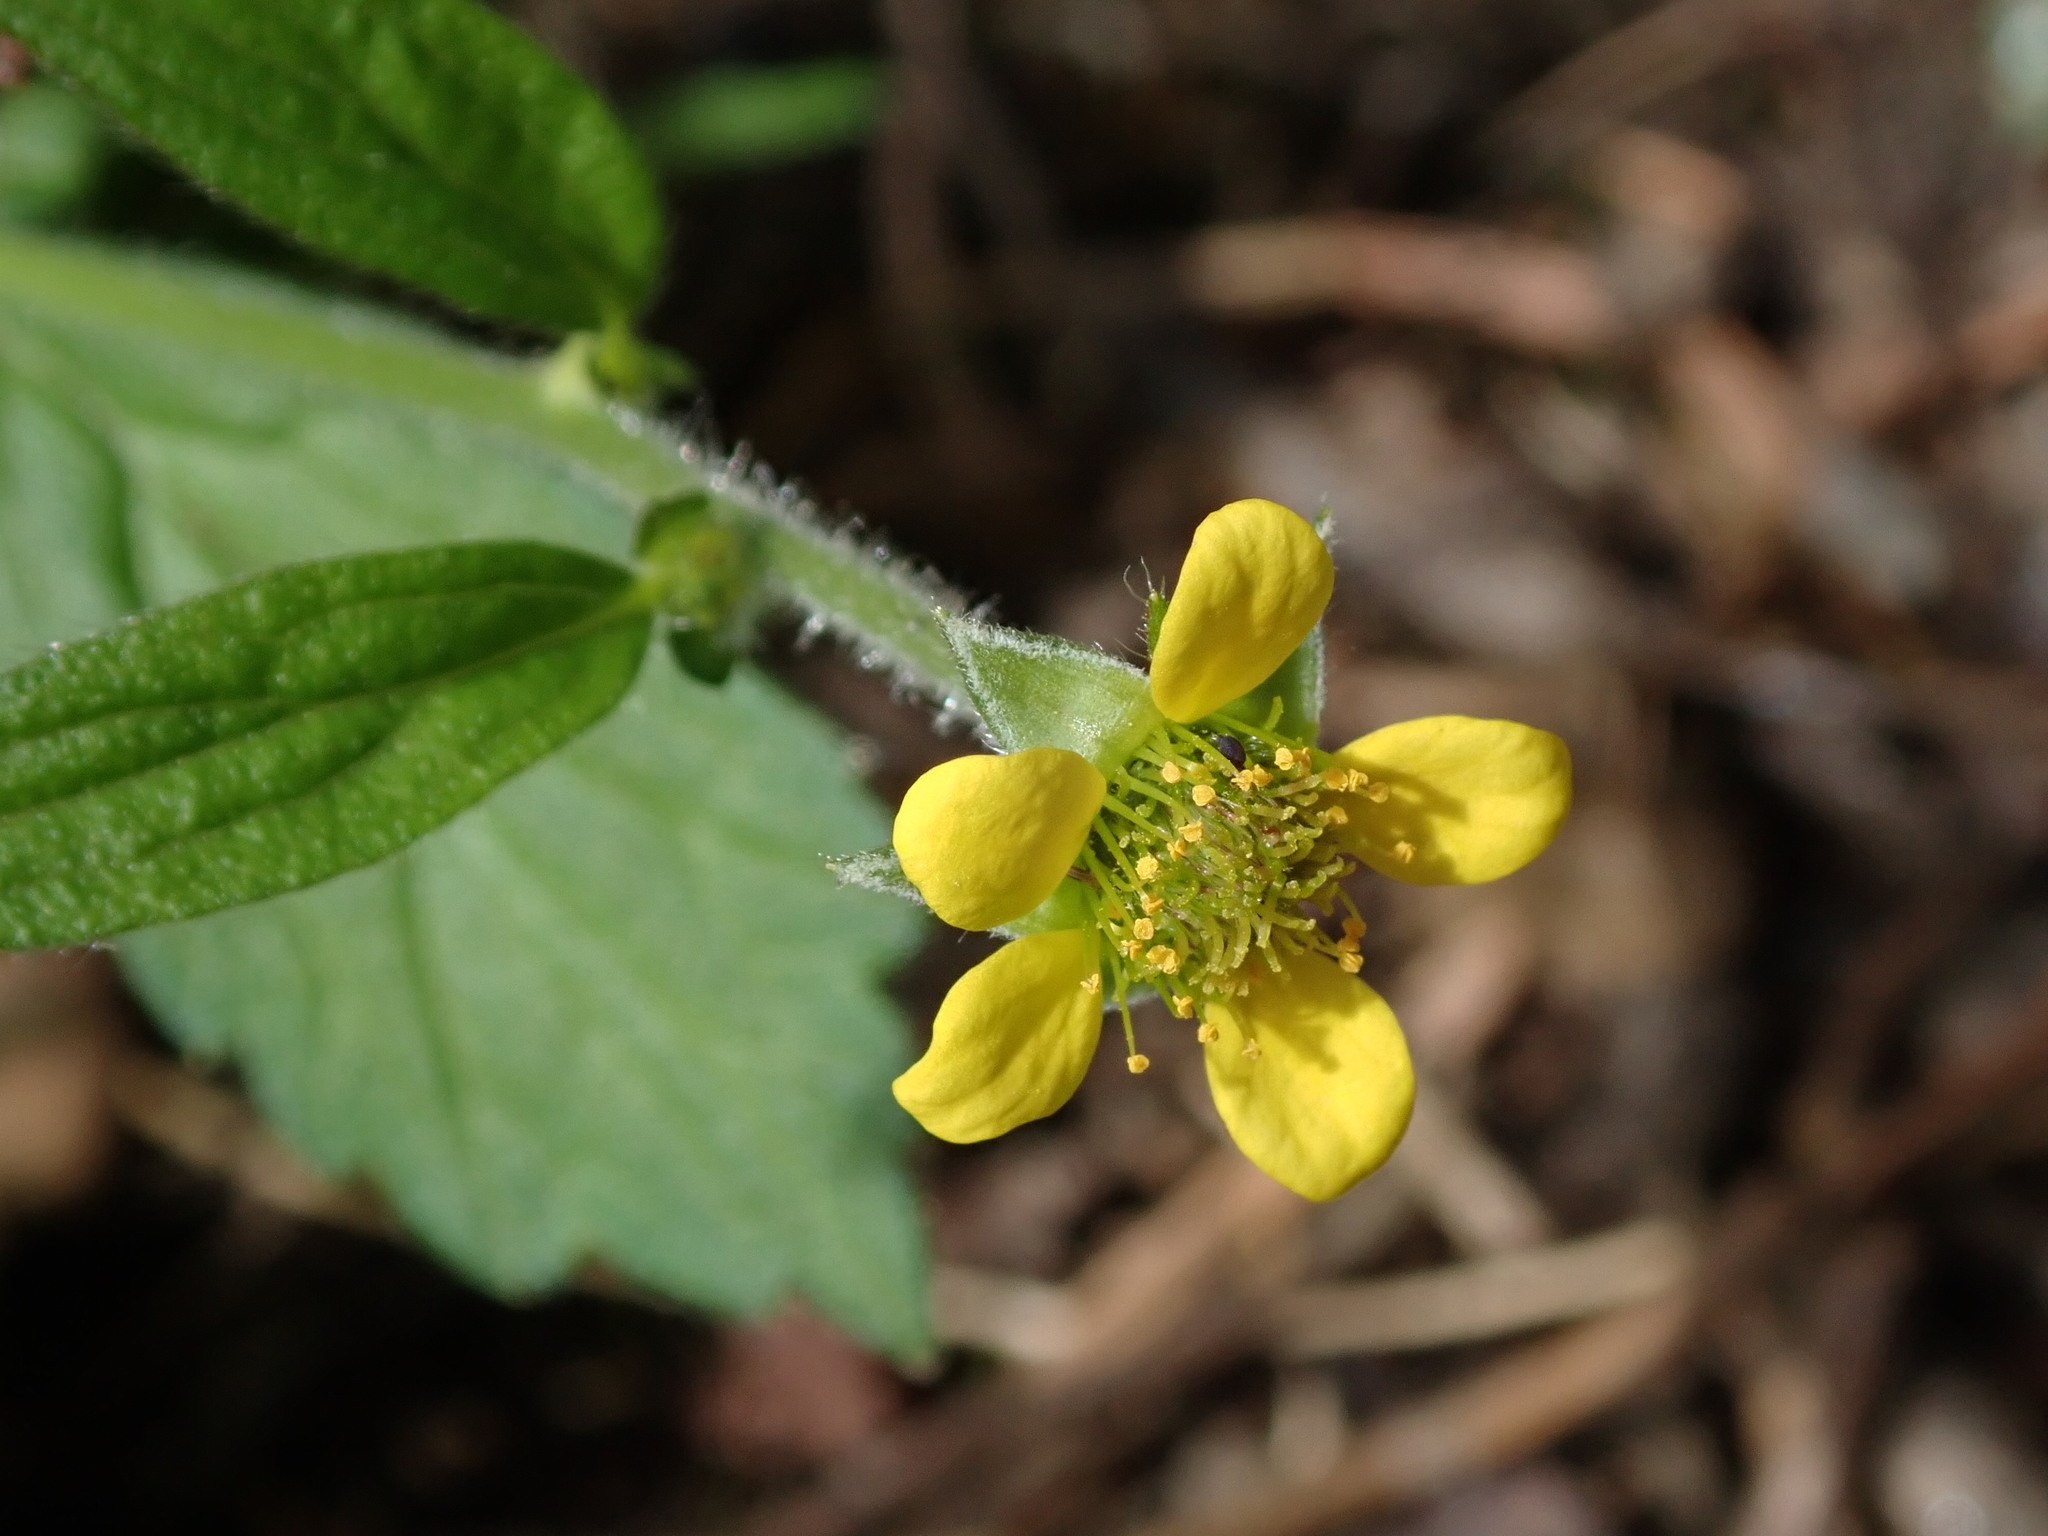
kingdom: Plantae
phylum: Tracheophyta
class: Magnoliopsida
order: Rosales
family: Rosaceae
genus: Geum
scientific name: Geum urbanum
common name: Wood avens
